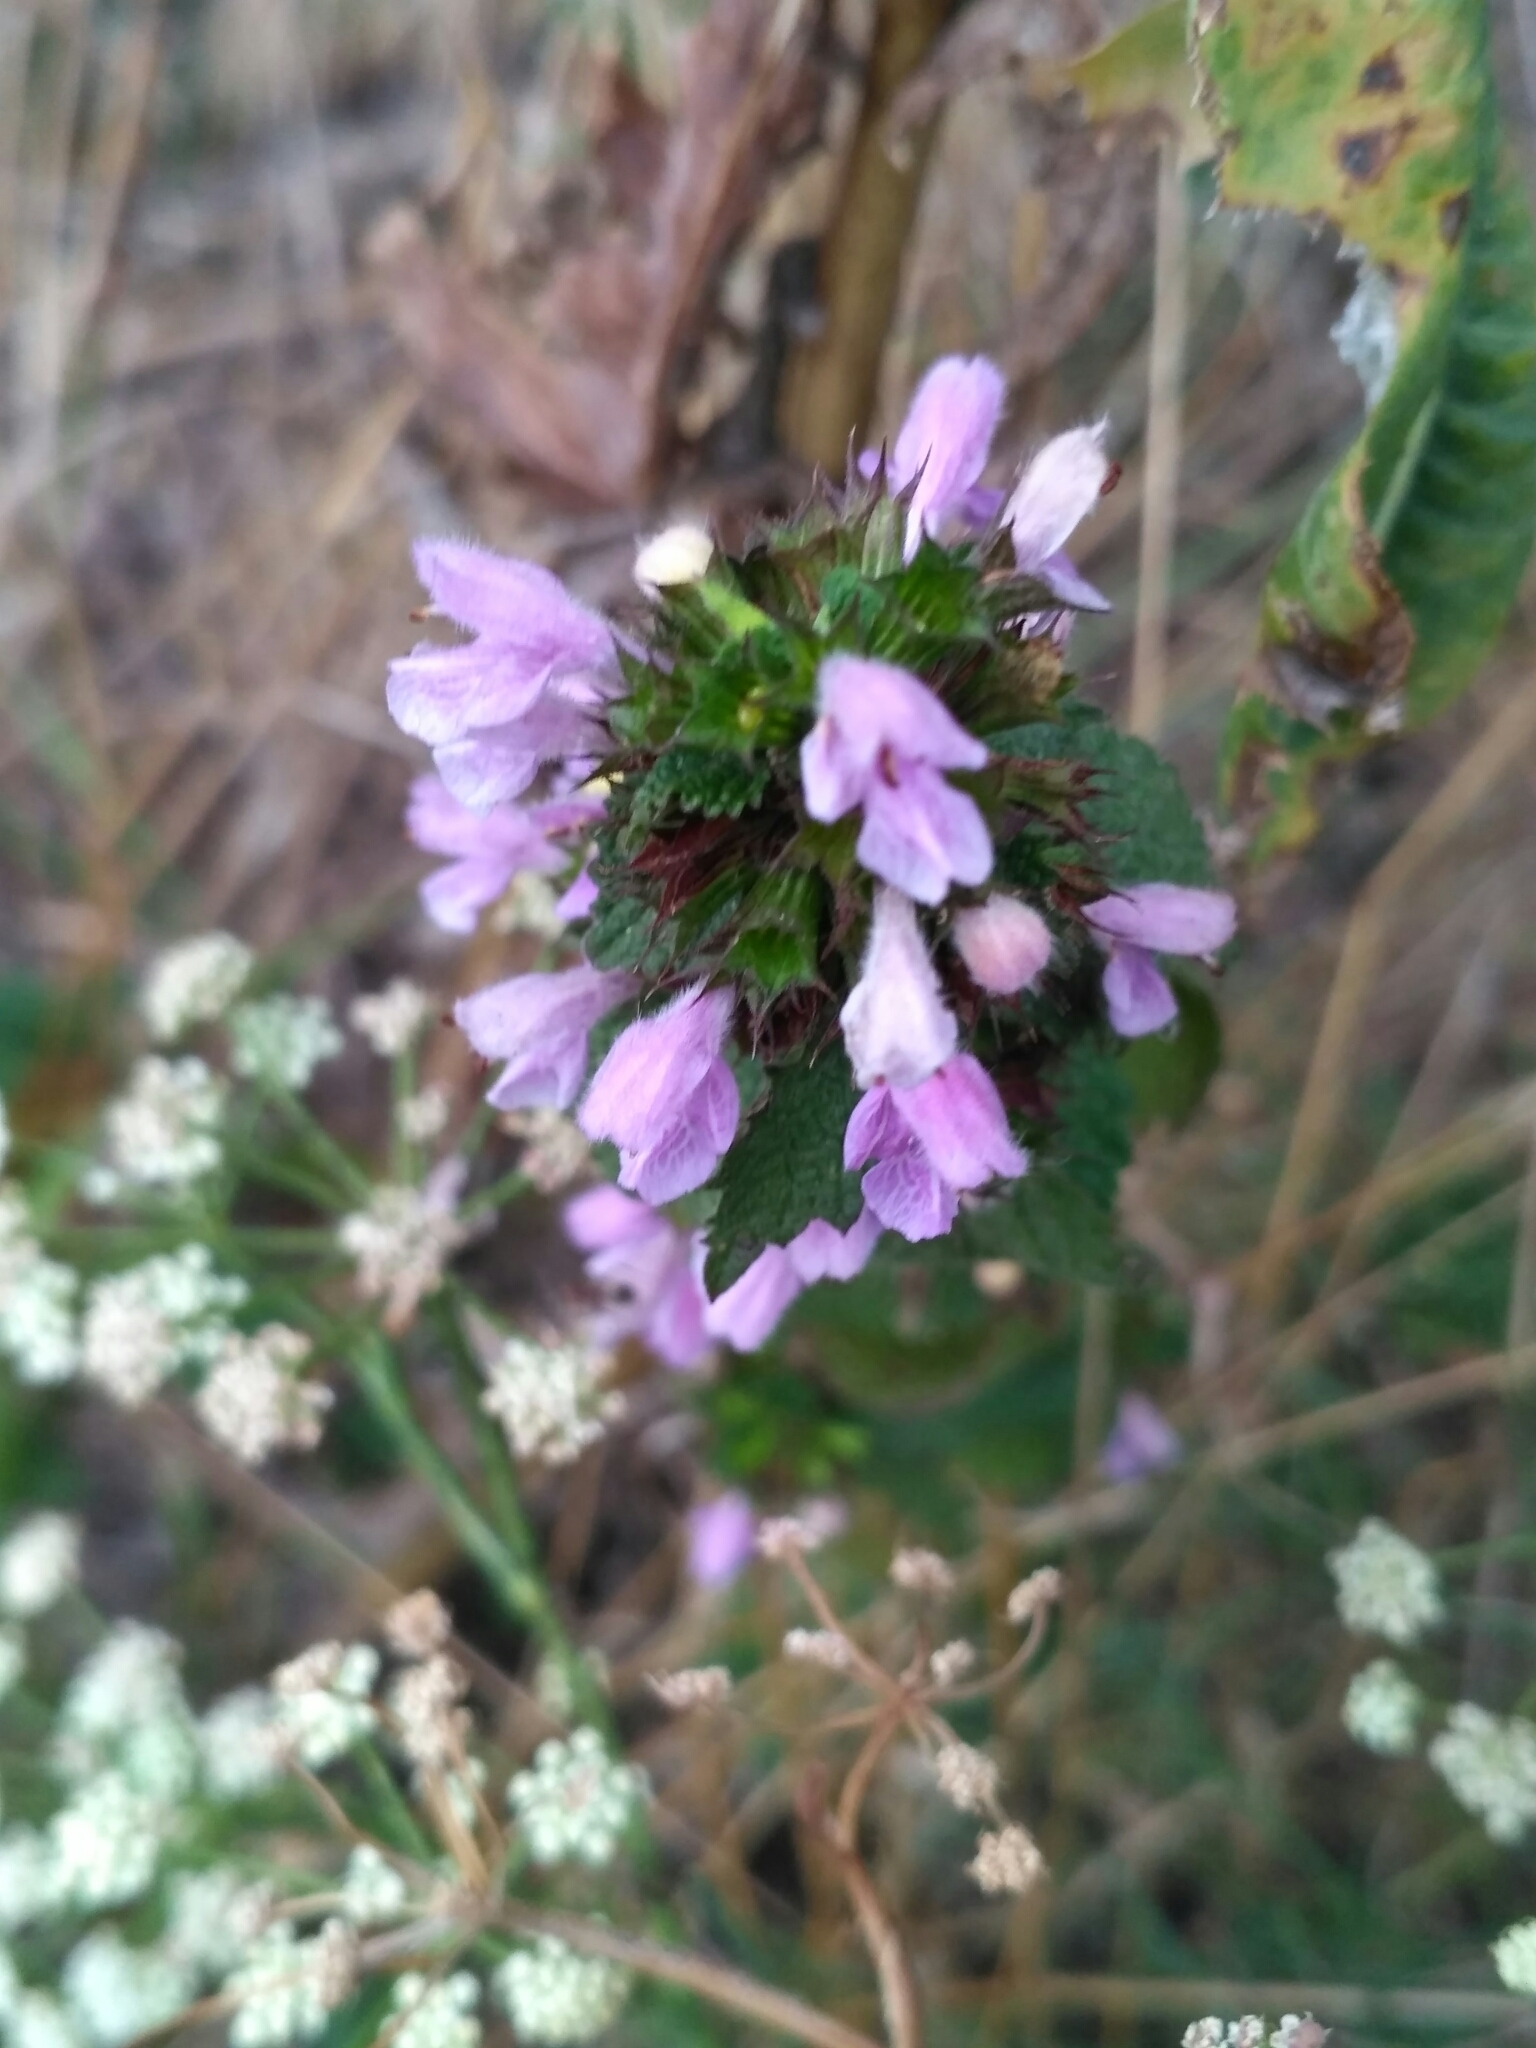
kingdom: Plantae
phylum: Tracheophyta
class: Magnoliopsida
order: Lamiales
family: Lamiaceae
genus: Ballota
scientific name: Ballota nigra
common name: Black horehound
